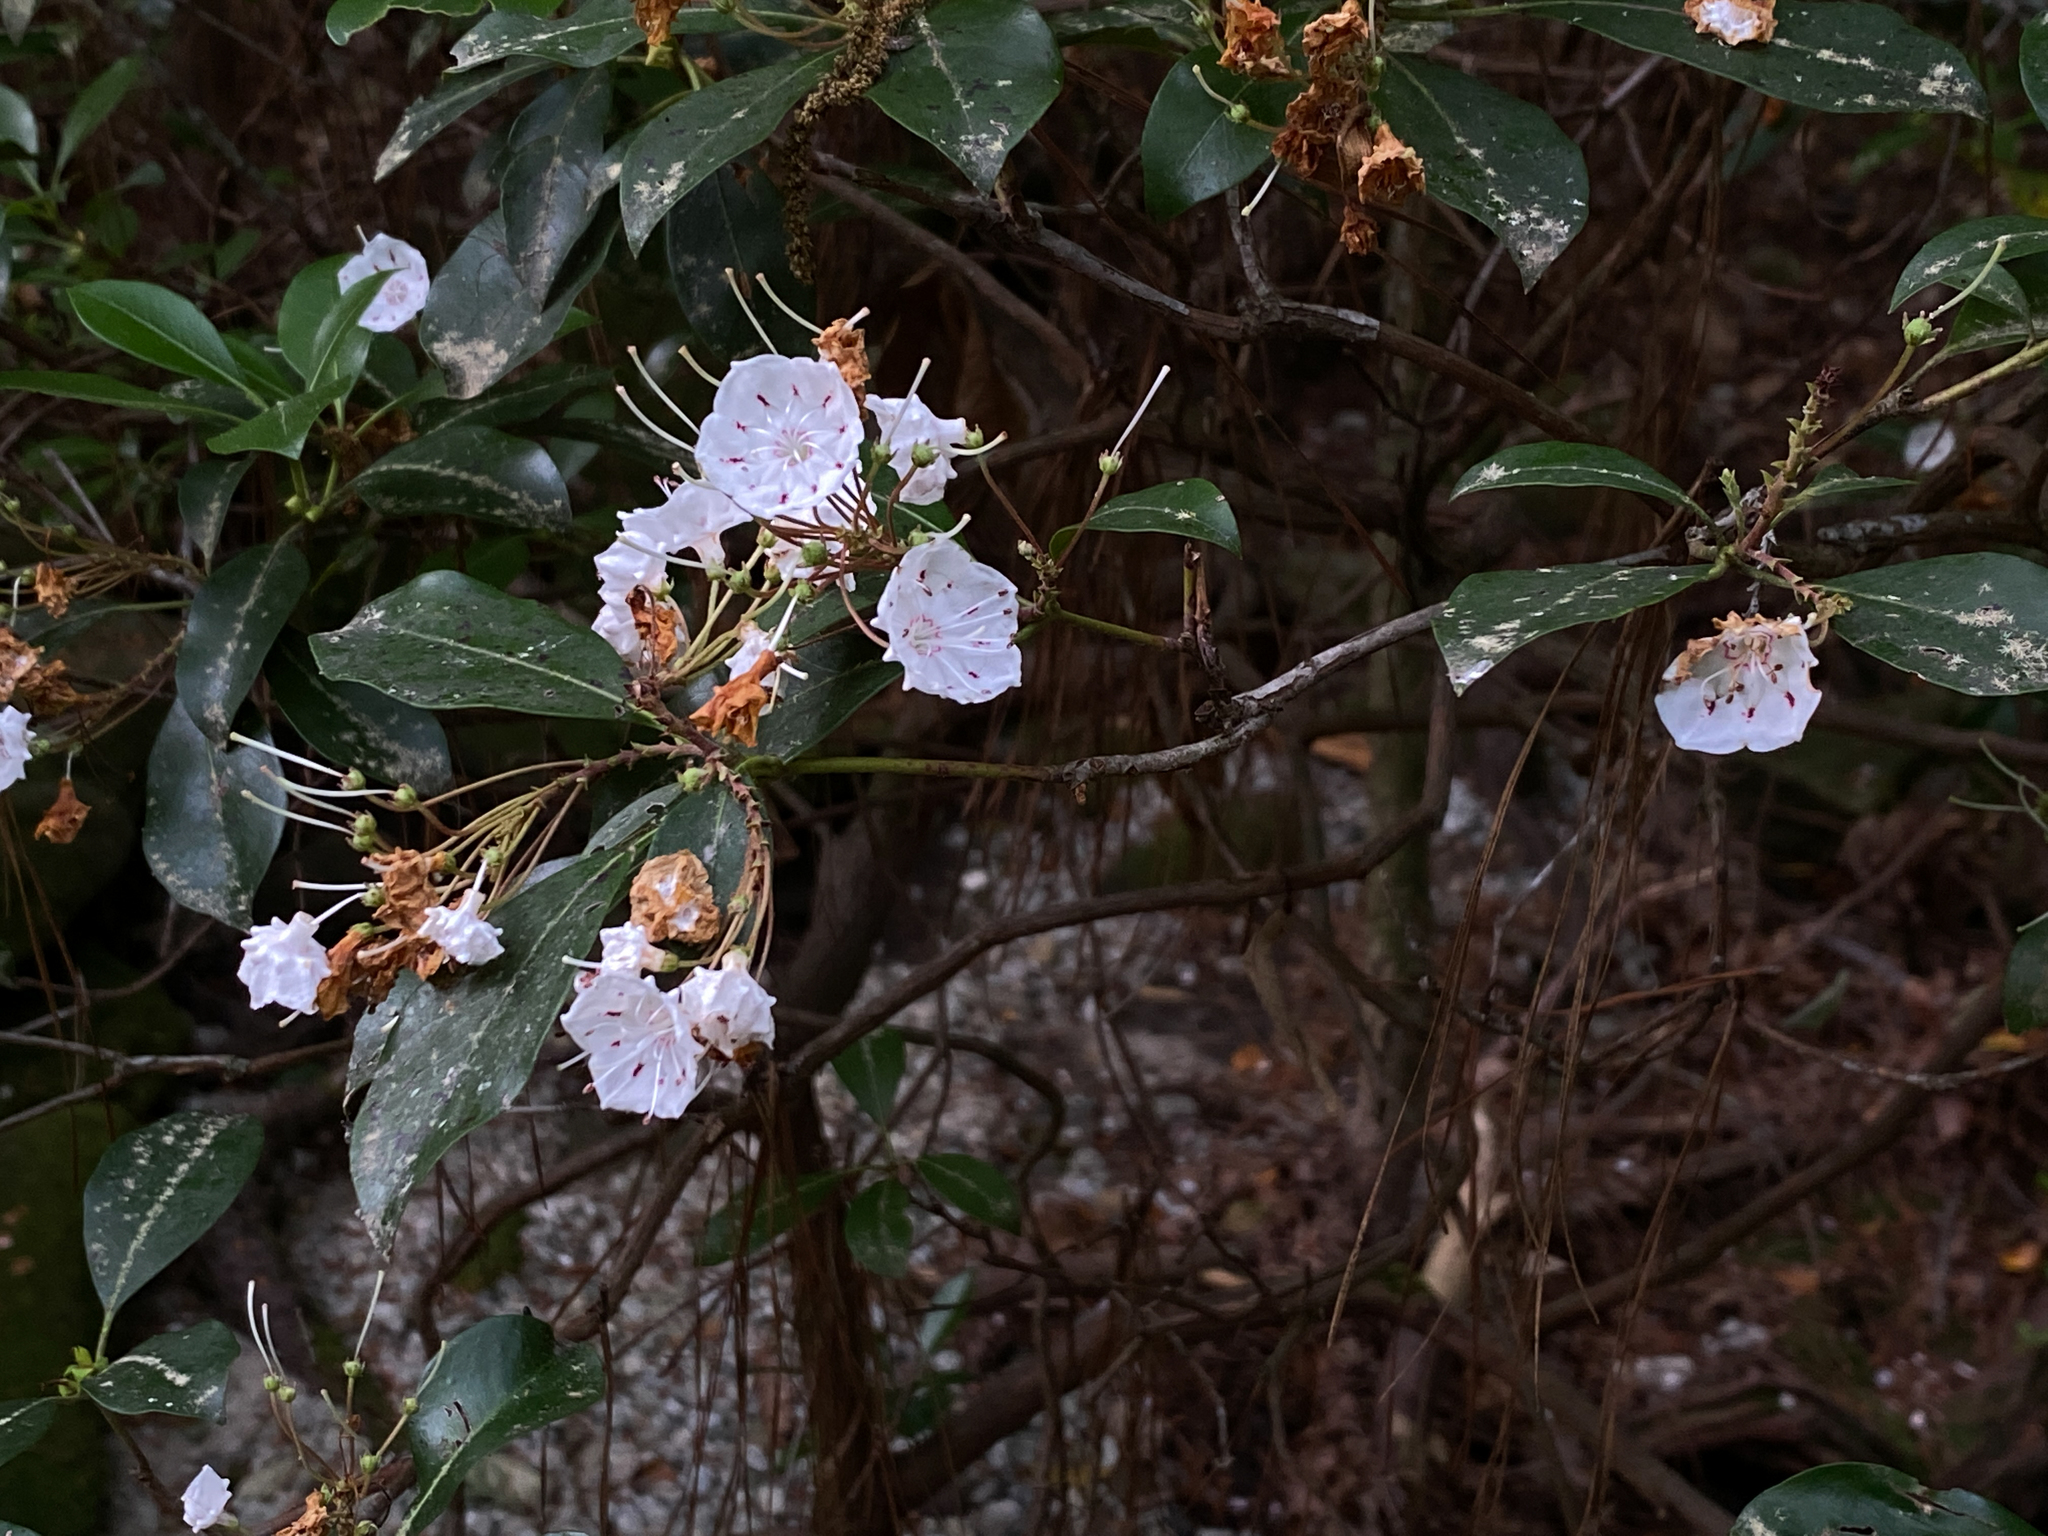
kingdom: Plantae
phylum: Tracheophyta
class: Magnoliopsida
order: Ericales
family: Ericaceae
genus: Kalmia
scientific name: Kalmia latifolia
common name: Mountain-laurel
